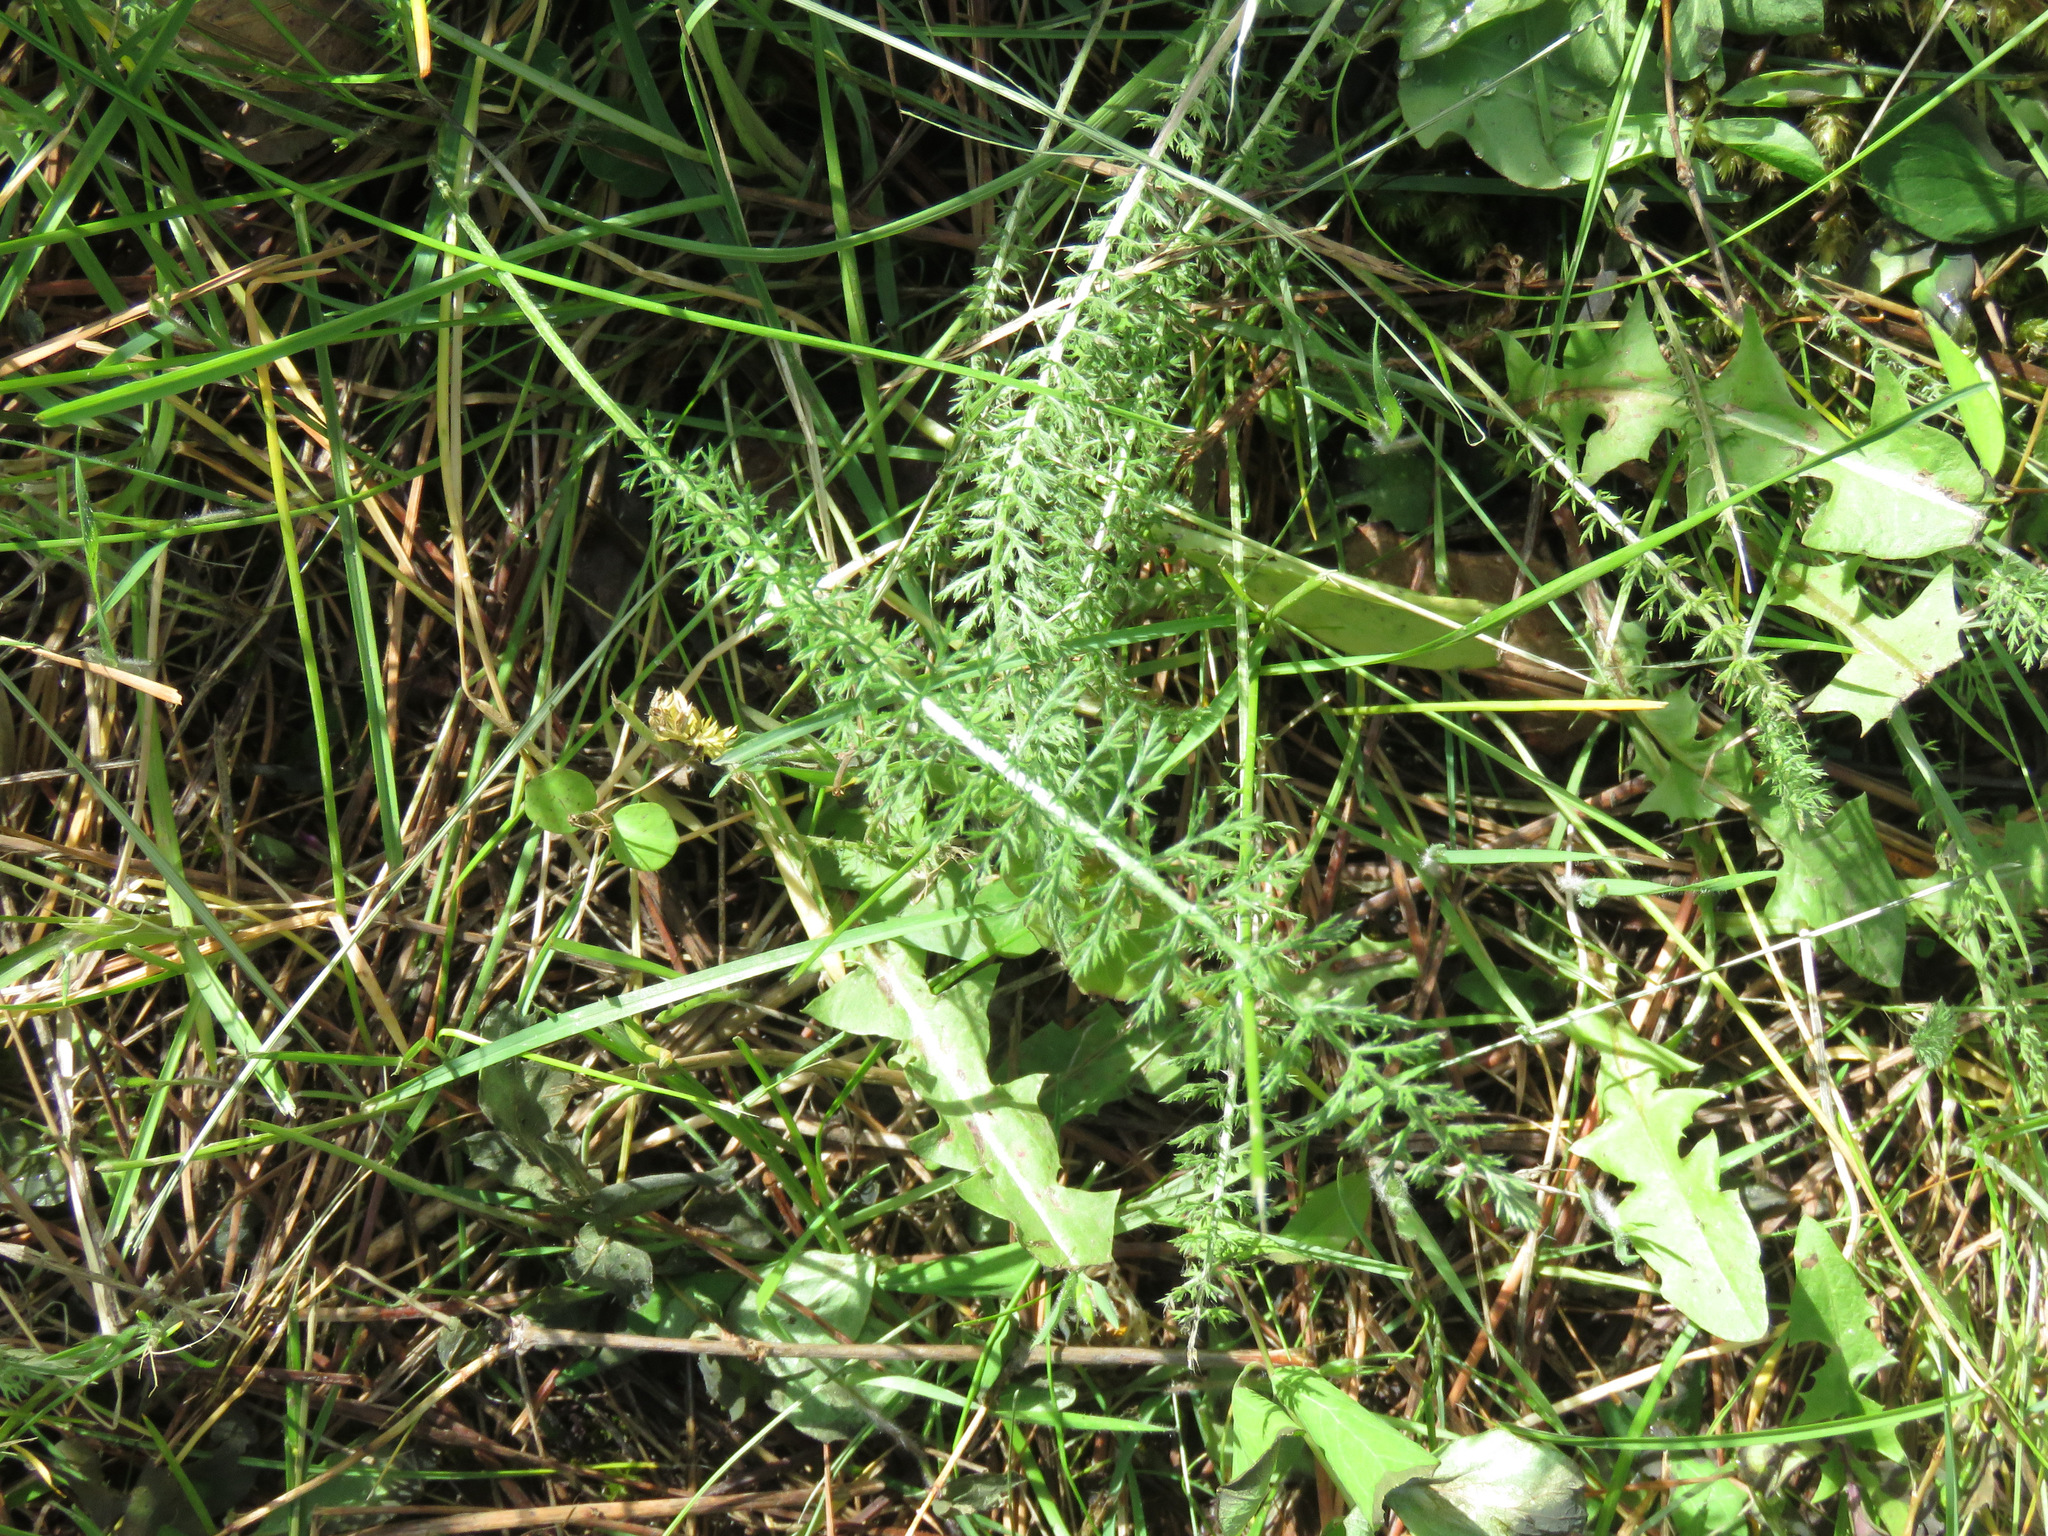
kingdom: Plantae
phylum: Tracheophyta
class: Magnoliopsida
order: Asterales
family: Asteraceae
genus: Achillea
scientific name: Achillea millefolium
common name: Yarrow
